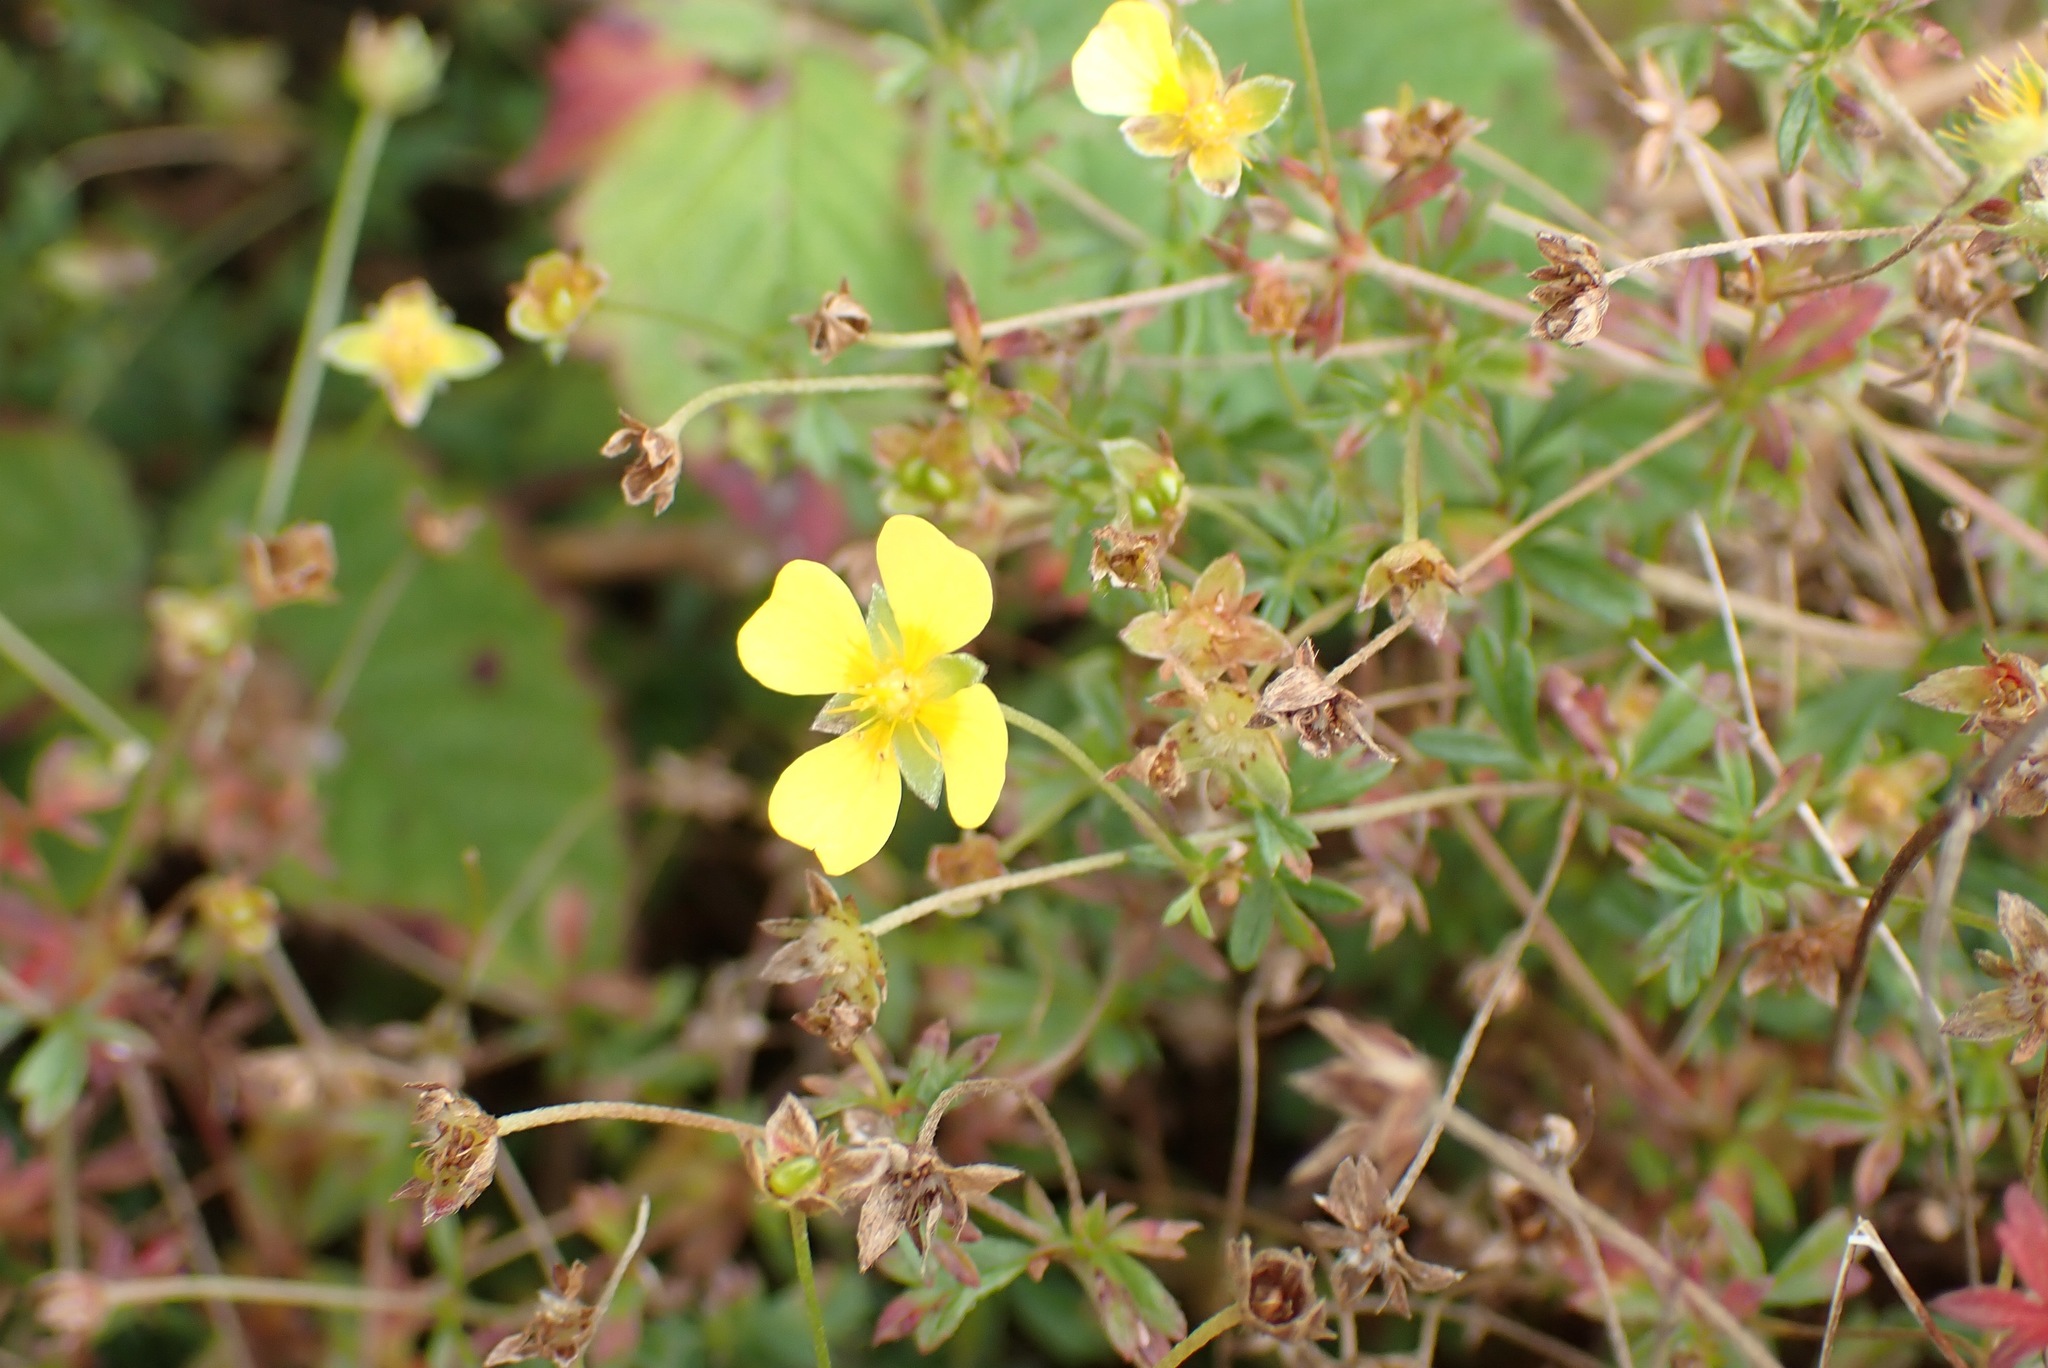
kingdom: Plantae
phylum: Tracheophyta
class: Magnoliopsida
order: Rosales
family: Rosaceae
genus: Potentilla
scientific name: Potentilla erecta
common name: Tormentil
